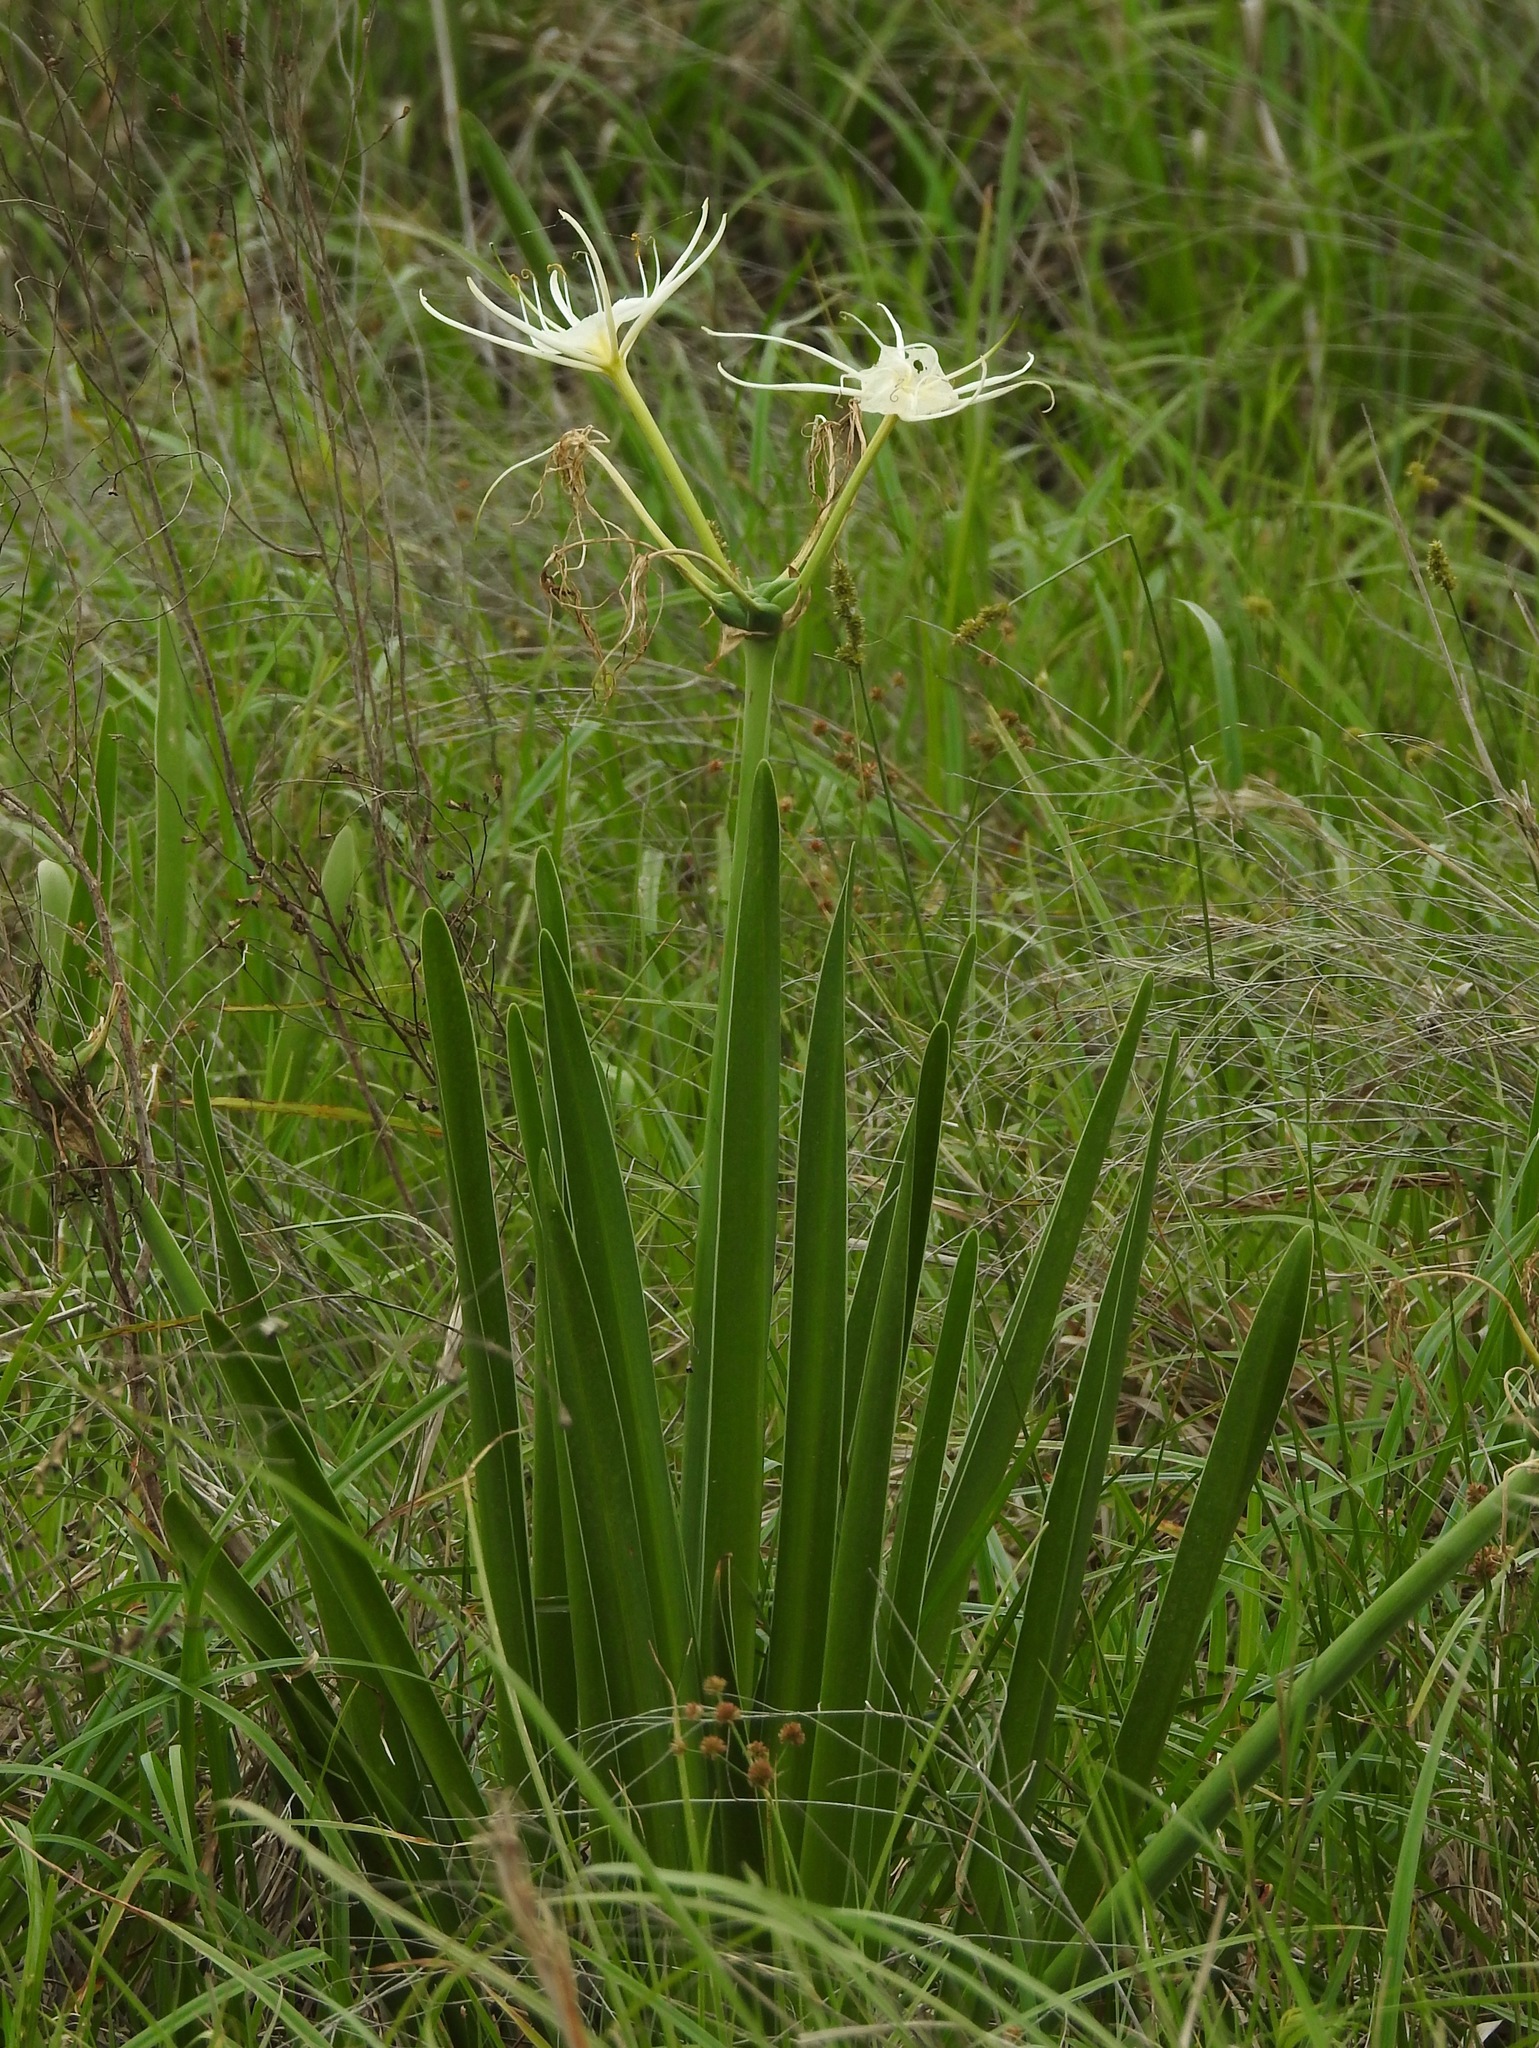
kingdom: Plantae
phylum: Tracheophyta
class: Liliopsida
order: Asparagales
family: Amaryllidaceae
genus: Hymenocallis
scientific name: Hymenocallis liriosme
